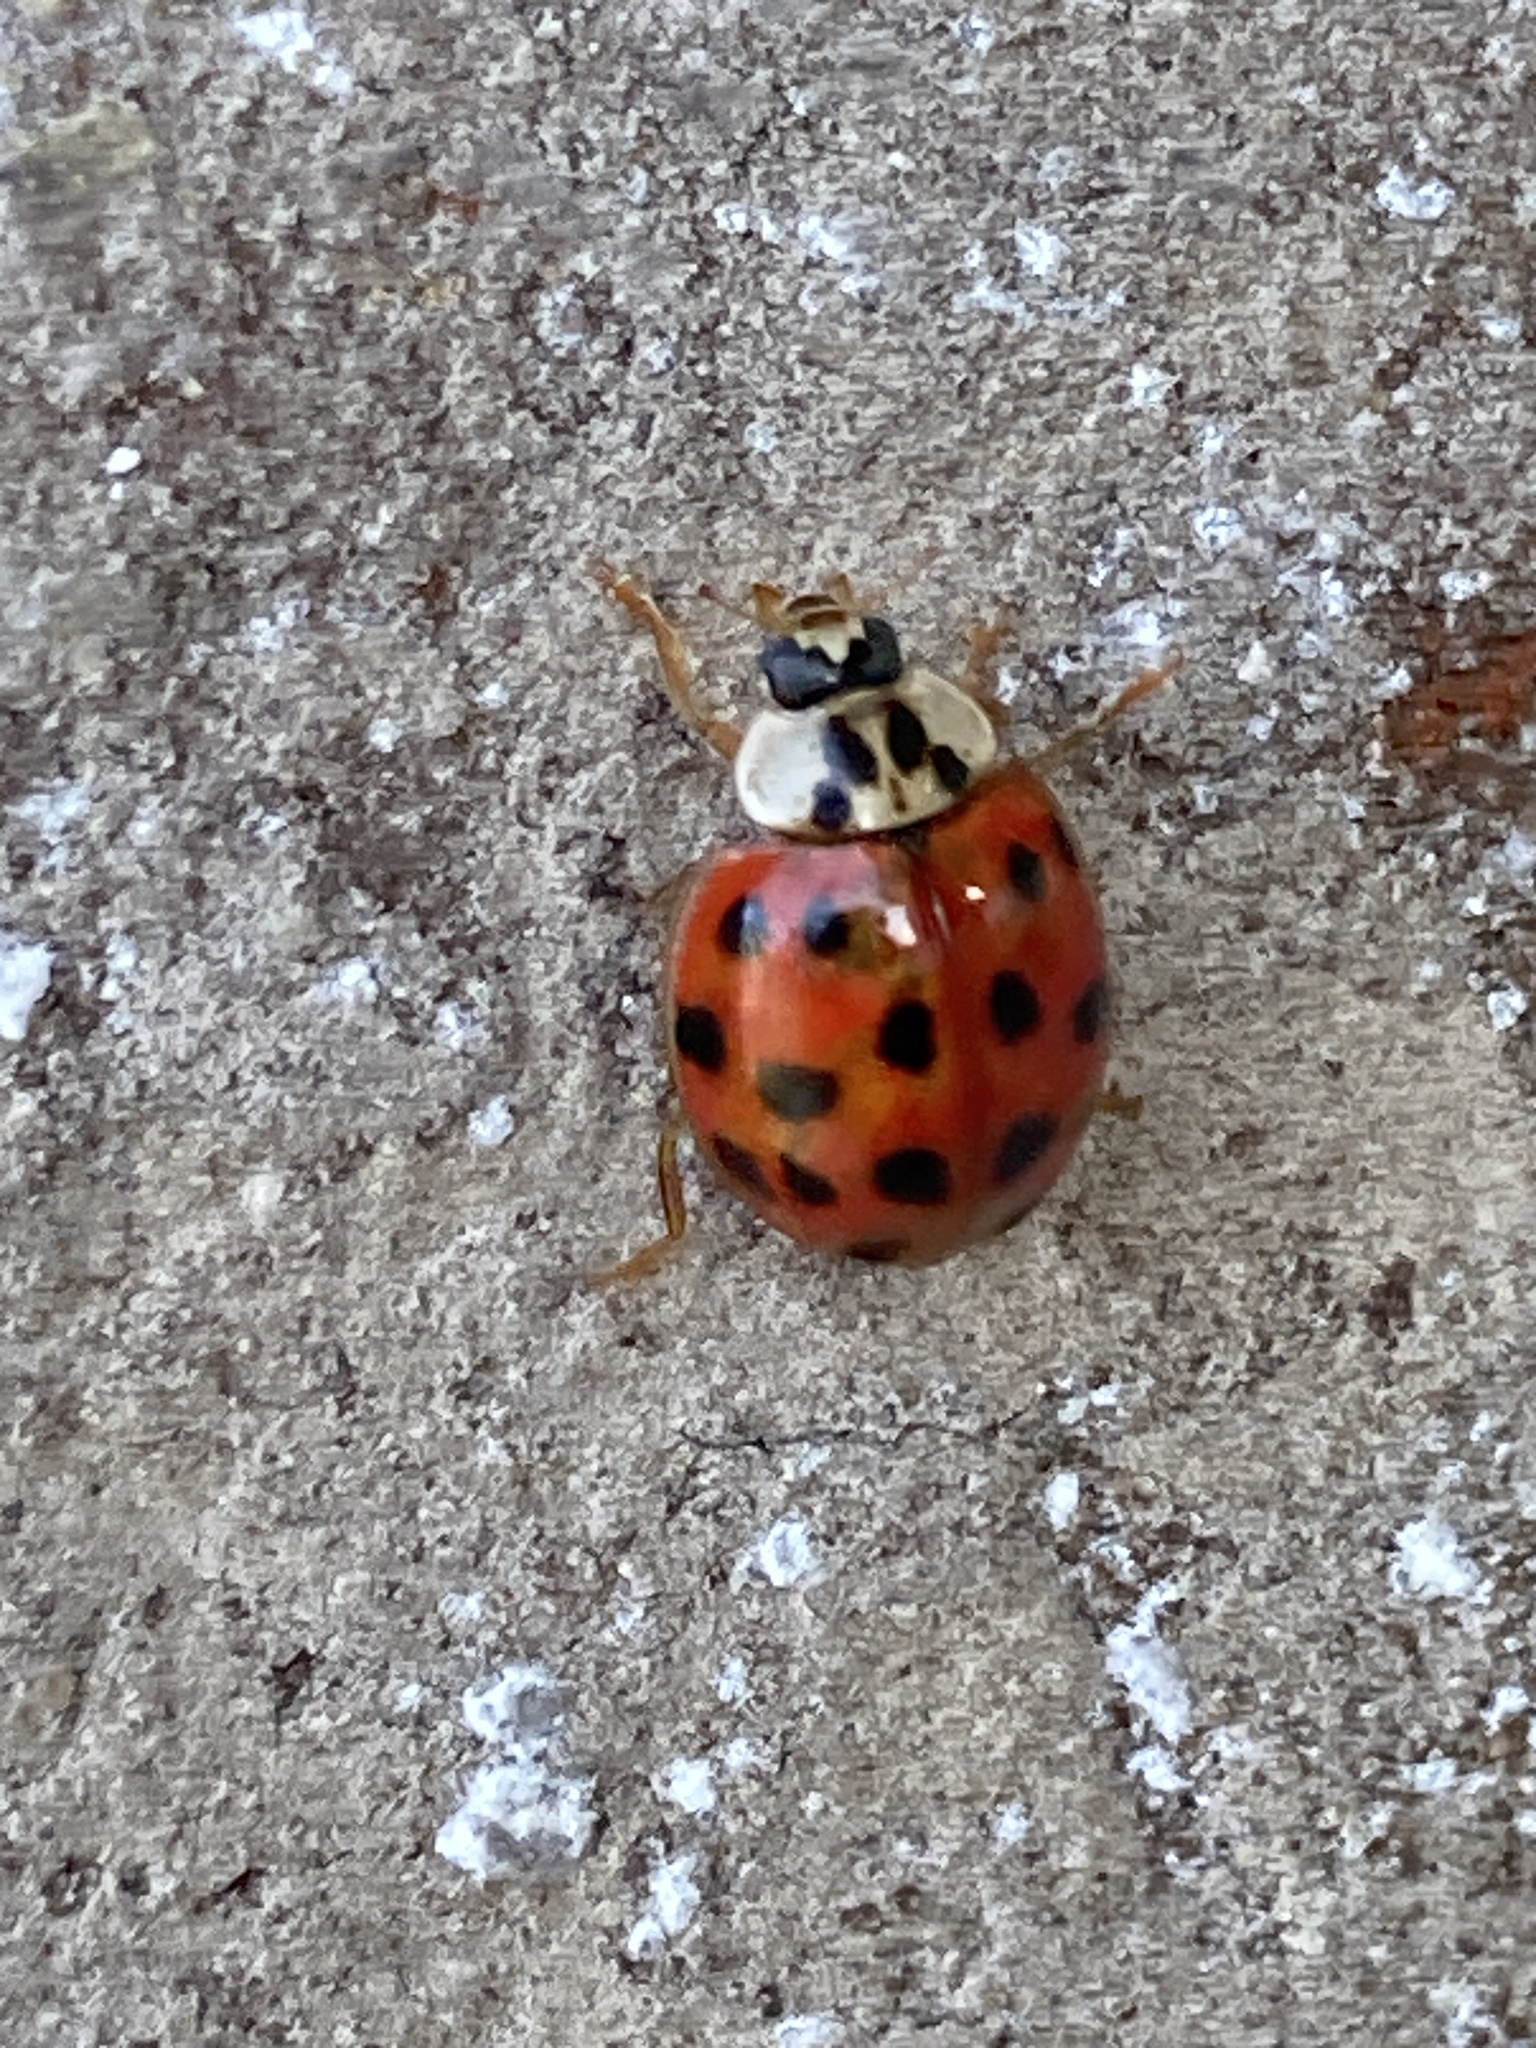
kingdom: Animalia
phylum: Arthropoda
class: Insecta
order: Coleoptera
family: Coccinellidae
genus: Harmonia
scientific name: Harmonia axyridis
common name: Harlequin ladybird
